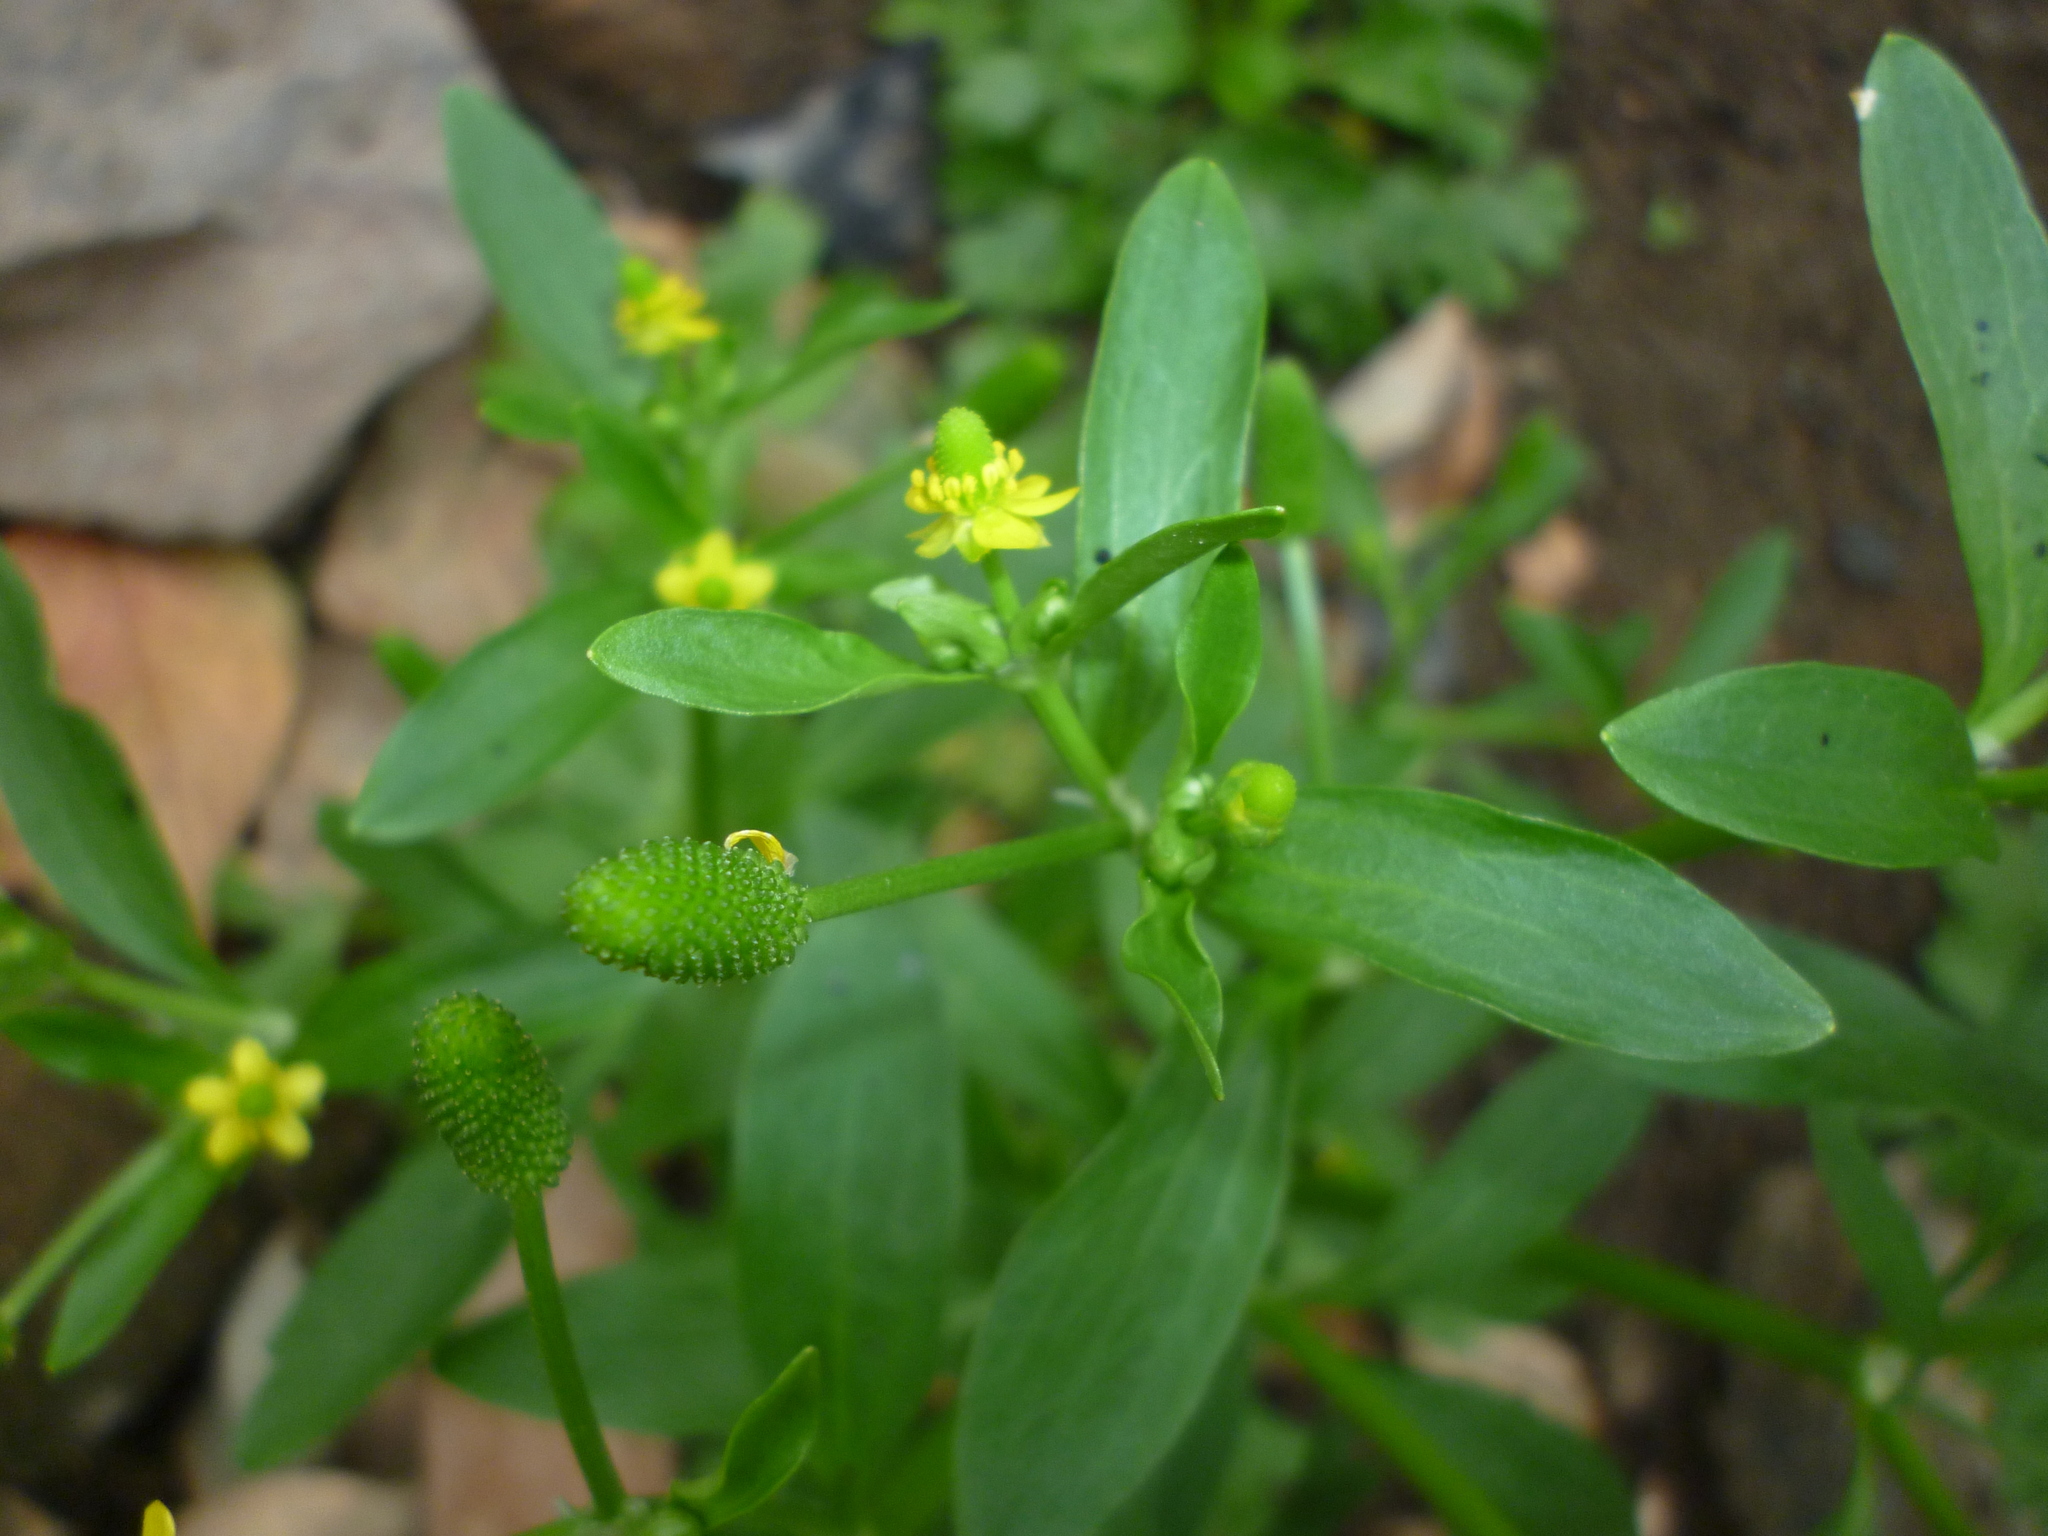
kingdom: Plantae
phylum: Tracheophyta
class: Magnoliopsida
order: Ranunculales
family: Ranunculaceae
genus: Ranunculus
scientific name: Ranunculus sceleratus
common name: Celery-leaved buttercup
